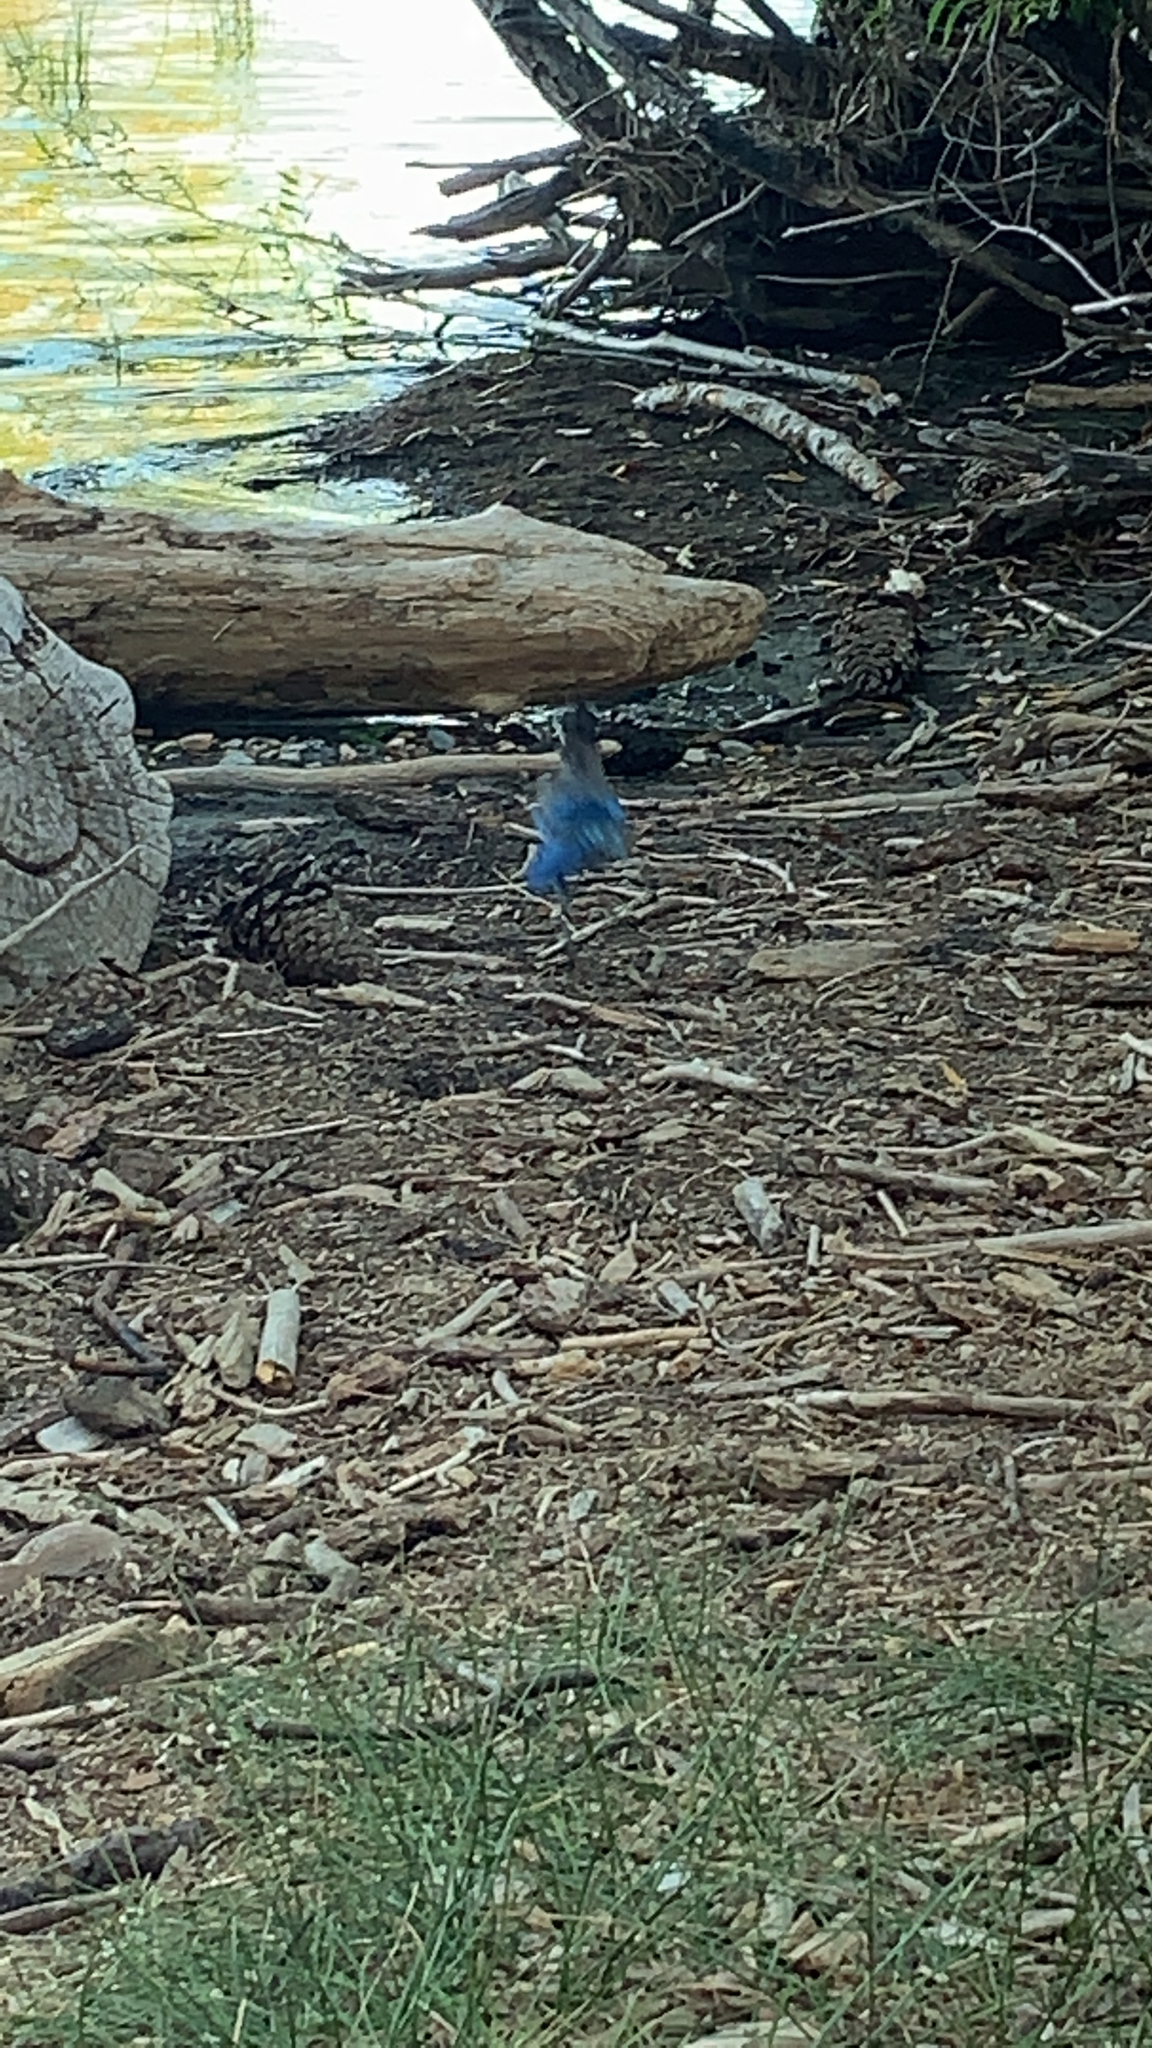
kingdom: Animalia
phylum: Chordata
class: Aves
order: Passeriformes
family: Corvidae
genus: Cyanocitta
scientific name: Cyanocitta stelleri
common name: Steller's jay
